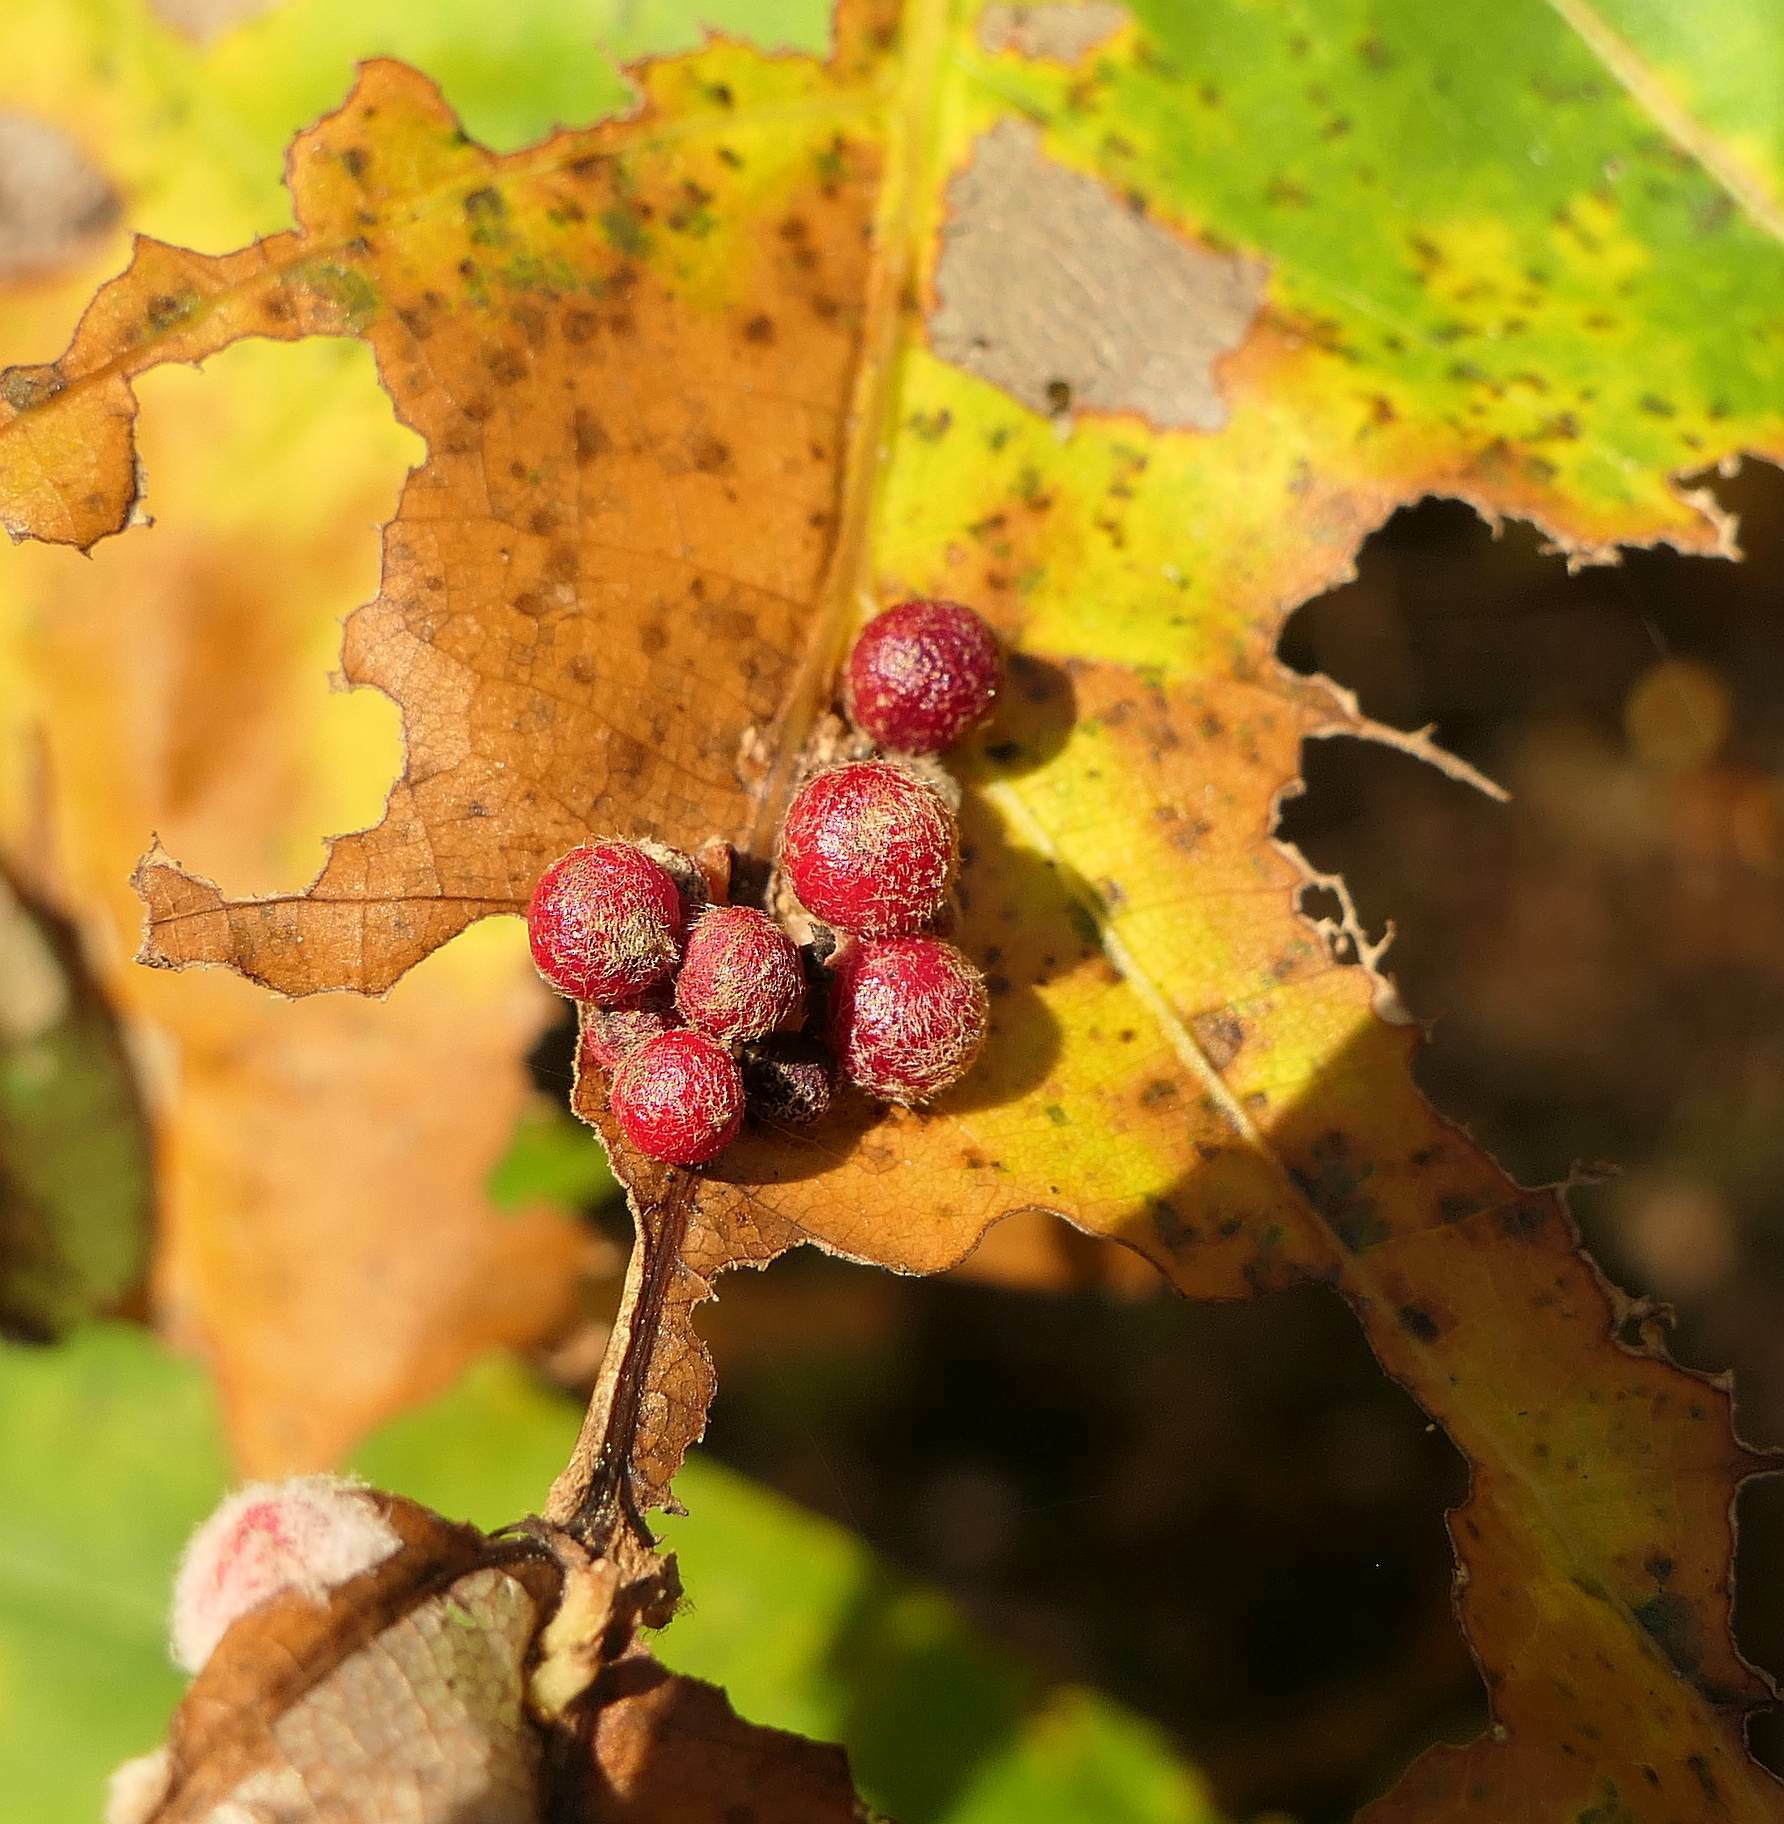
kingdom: Animalia
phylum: Arthropoda
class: Insecta
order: Hymenoptera
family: Cynipidae
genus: Callirhytis
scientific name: Callirhytis
